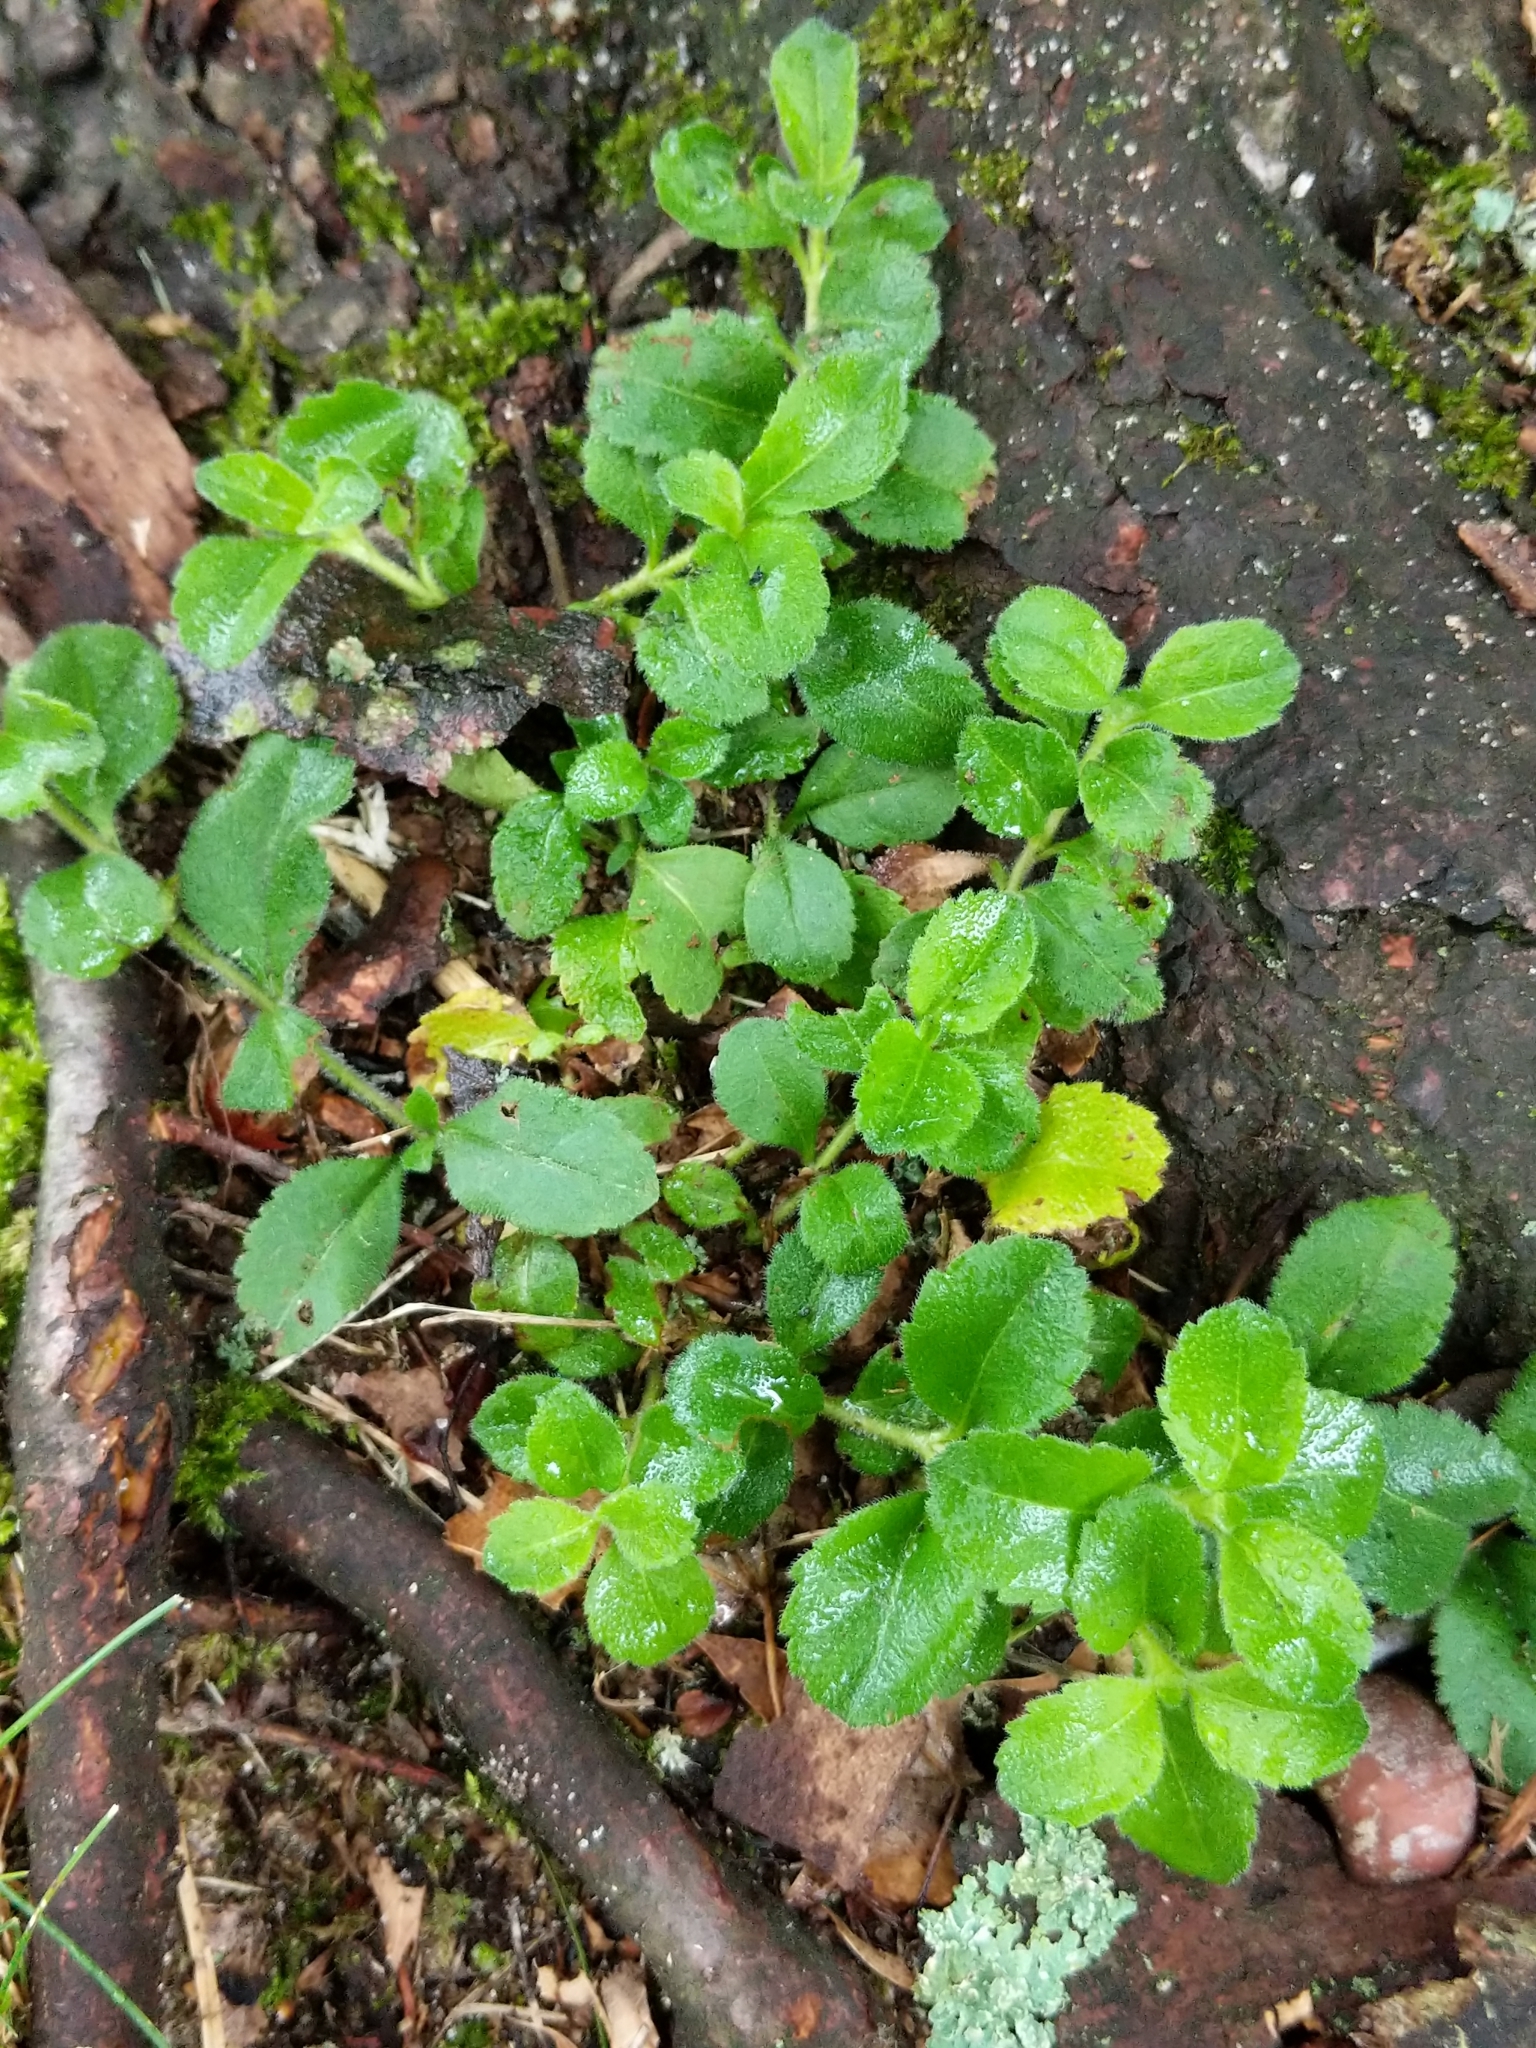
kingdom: Plantae
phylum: Tracheophyta
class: Magnoliopsida
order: Lamiales
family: Plantaginaceae
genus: Veronica
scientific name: Veronica officinalis
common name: Common speedwell
